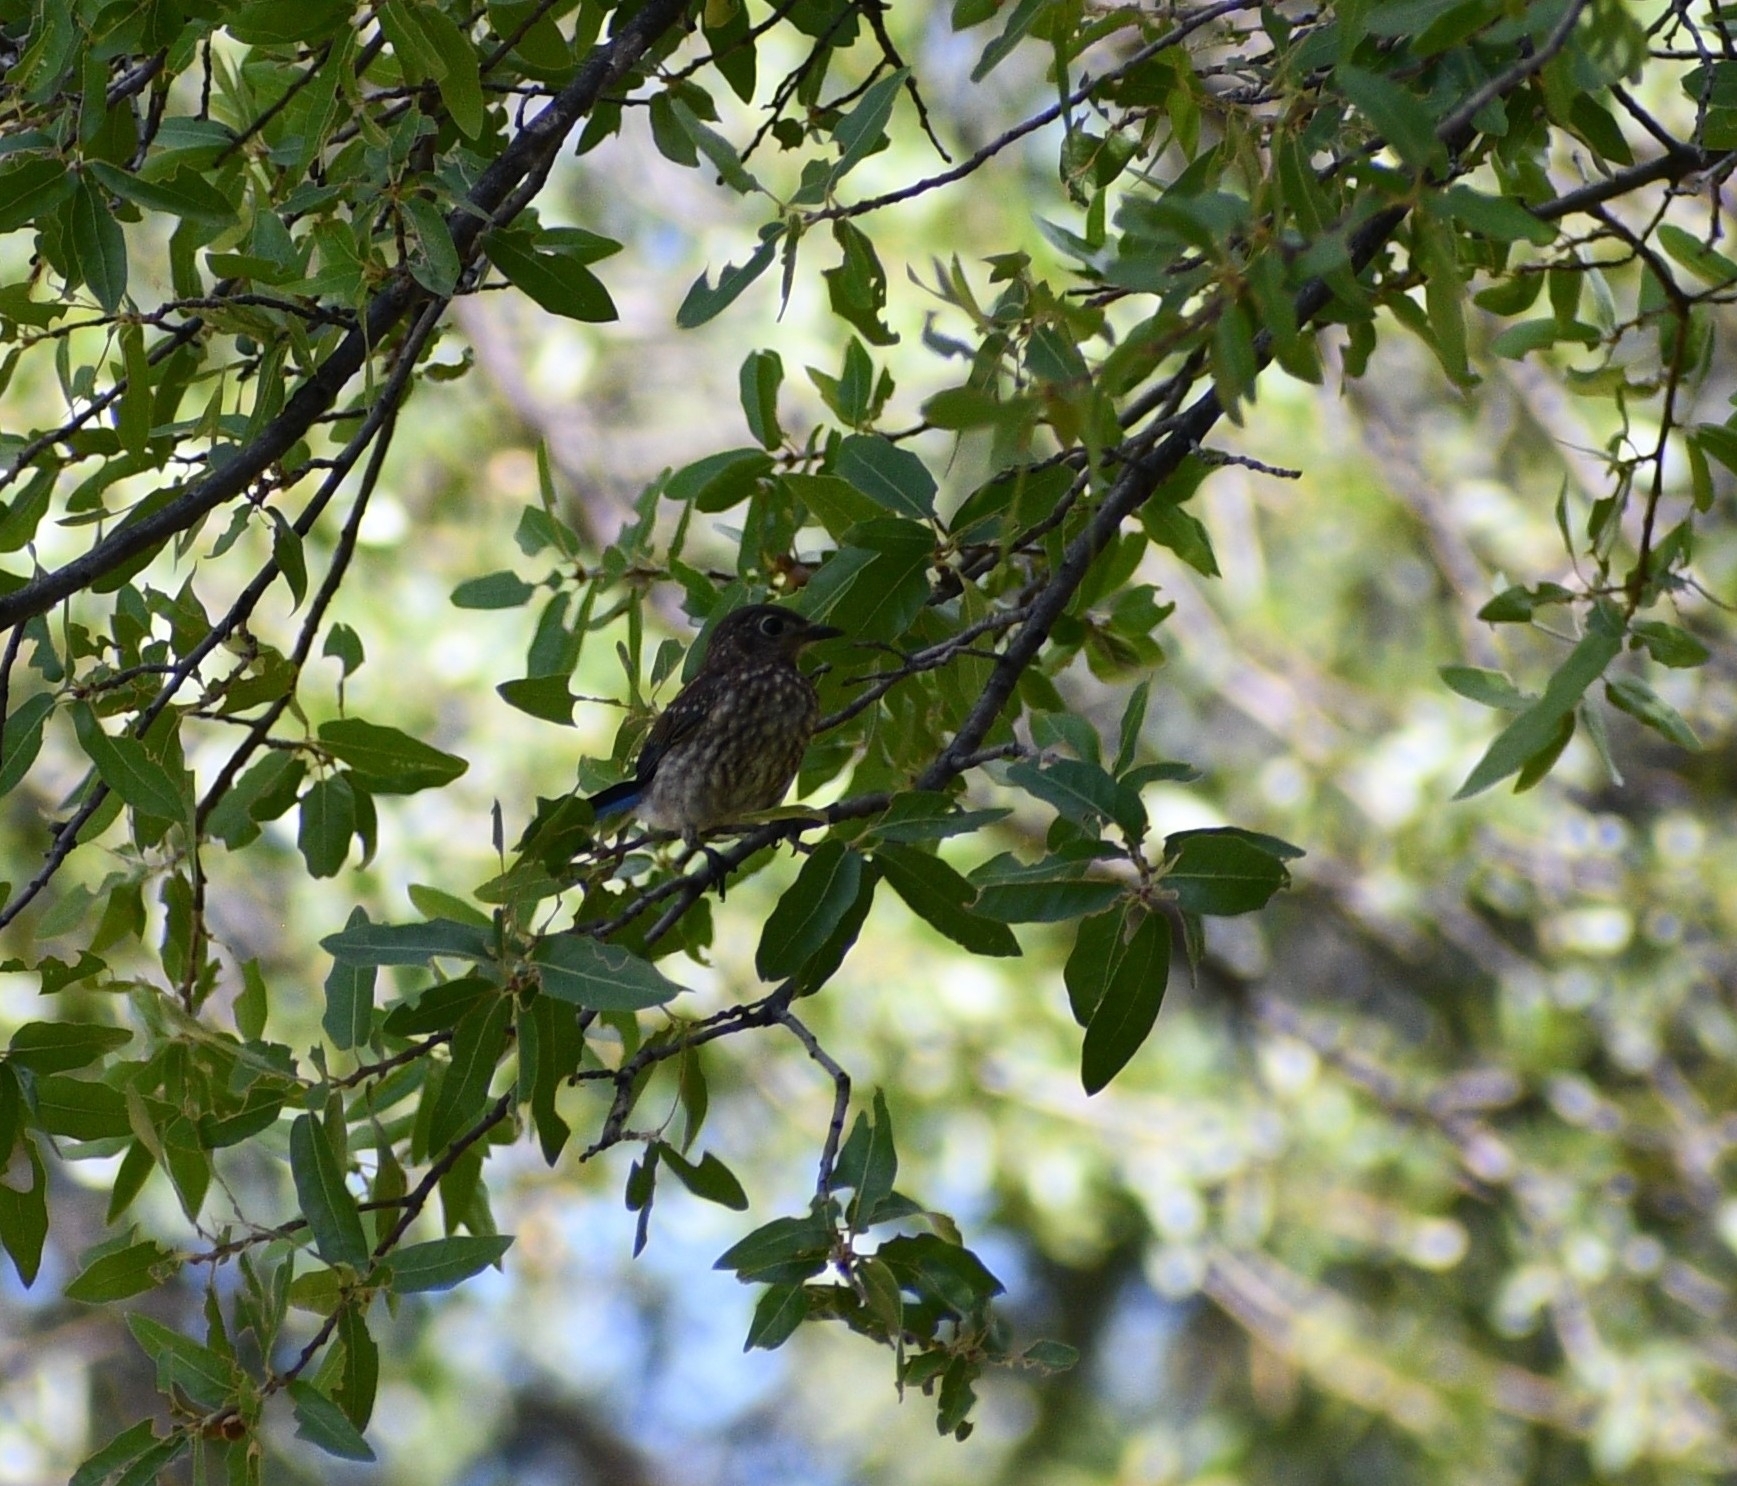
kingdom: Animalia
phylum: Chordata
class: Aves
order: Passeriformes
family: Turdidae
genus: Sialia
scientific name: Sialia sialis
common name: Eastern bluebird
